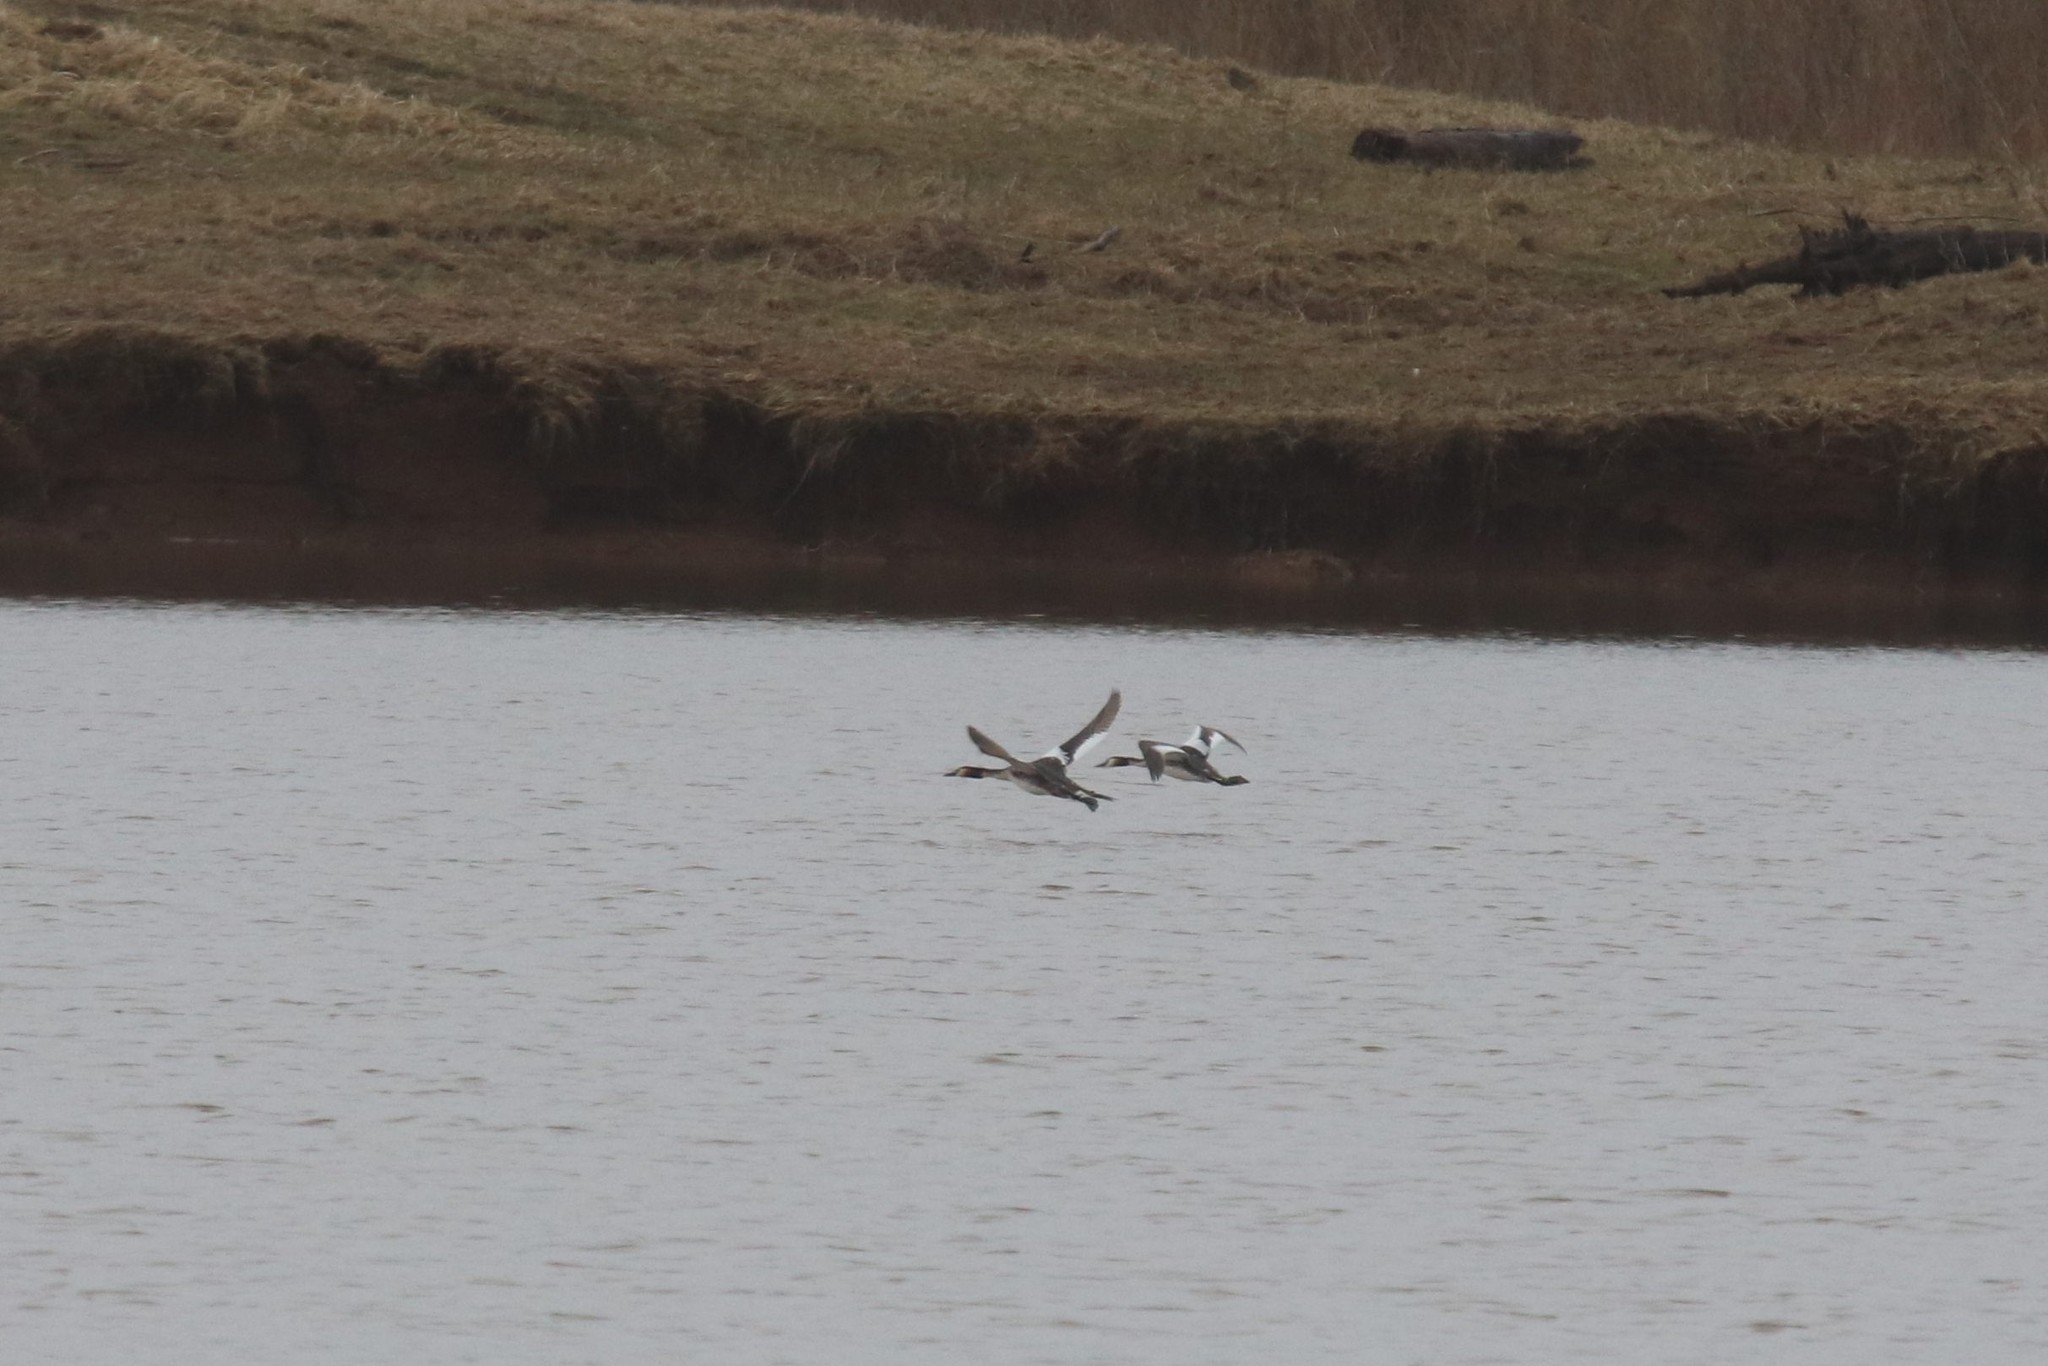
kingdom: Animalia
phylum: Chordata
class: Aves
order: Podicipediformes
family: Podicipedidae
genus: Podiceps
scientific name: Podiceps cristatus
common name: Great crested grebe
